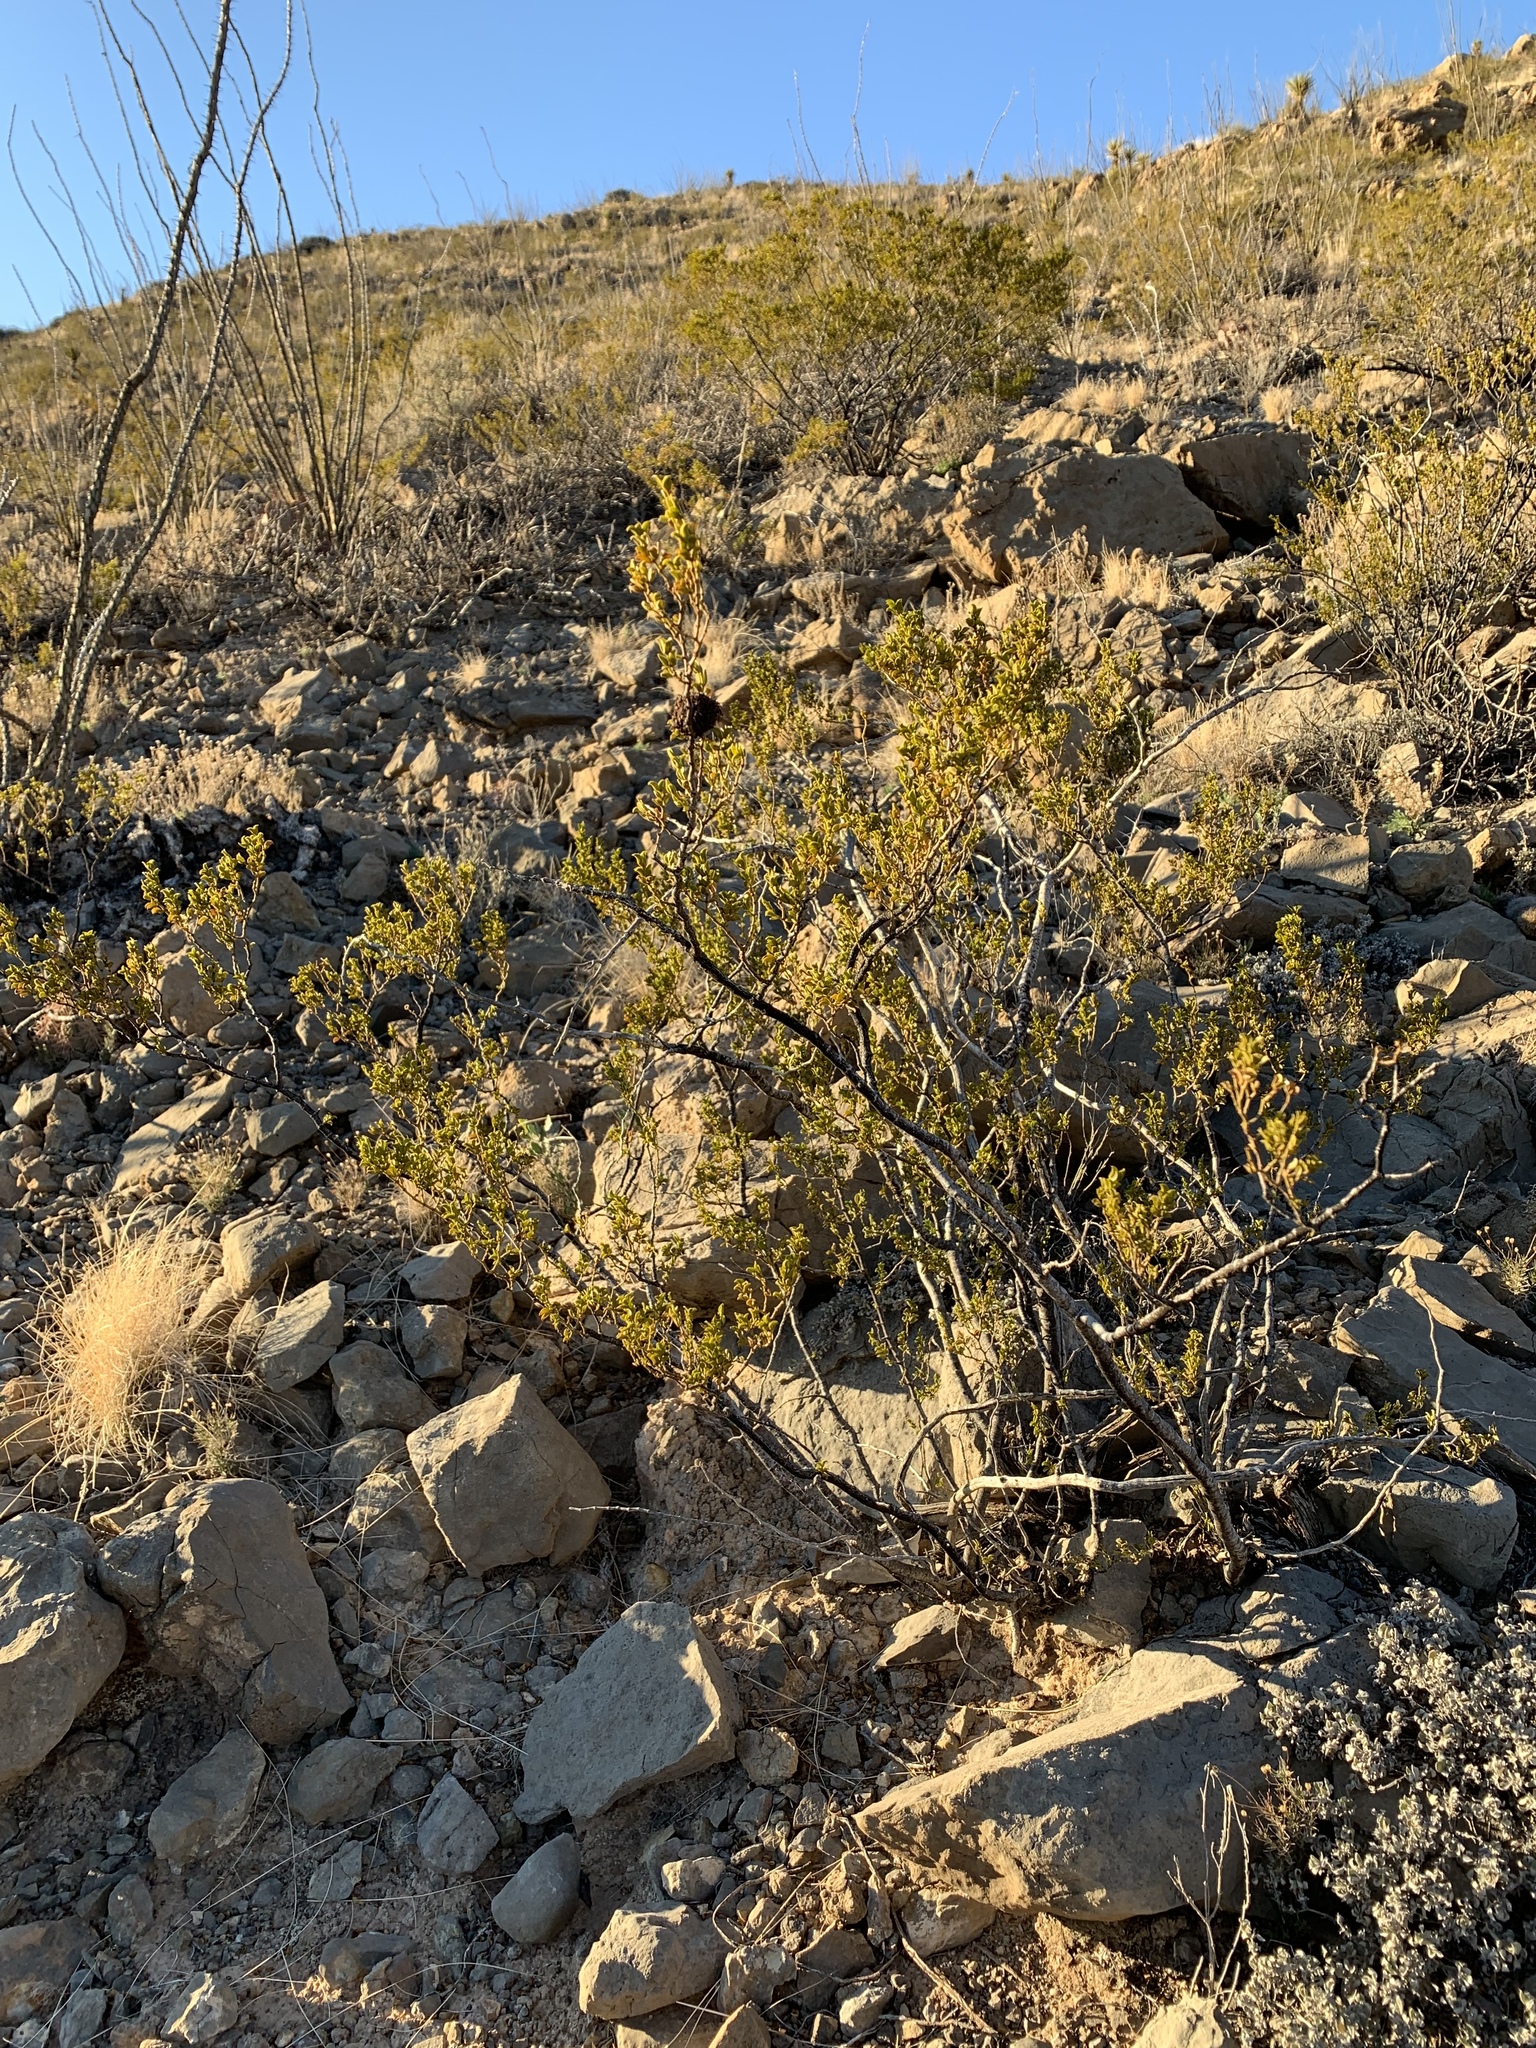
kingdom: Plantae
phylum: Tracheophyta
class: Magnoliopsida
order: Zygophyllales
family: Zygophyllaceae
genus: Larrea
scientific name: Larrea tridentata
